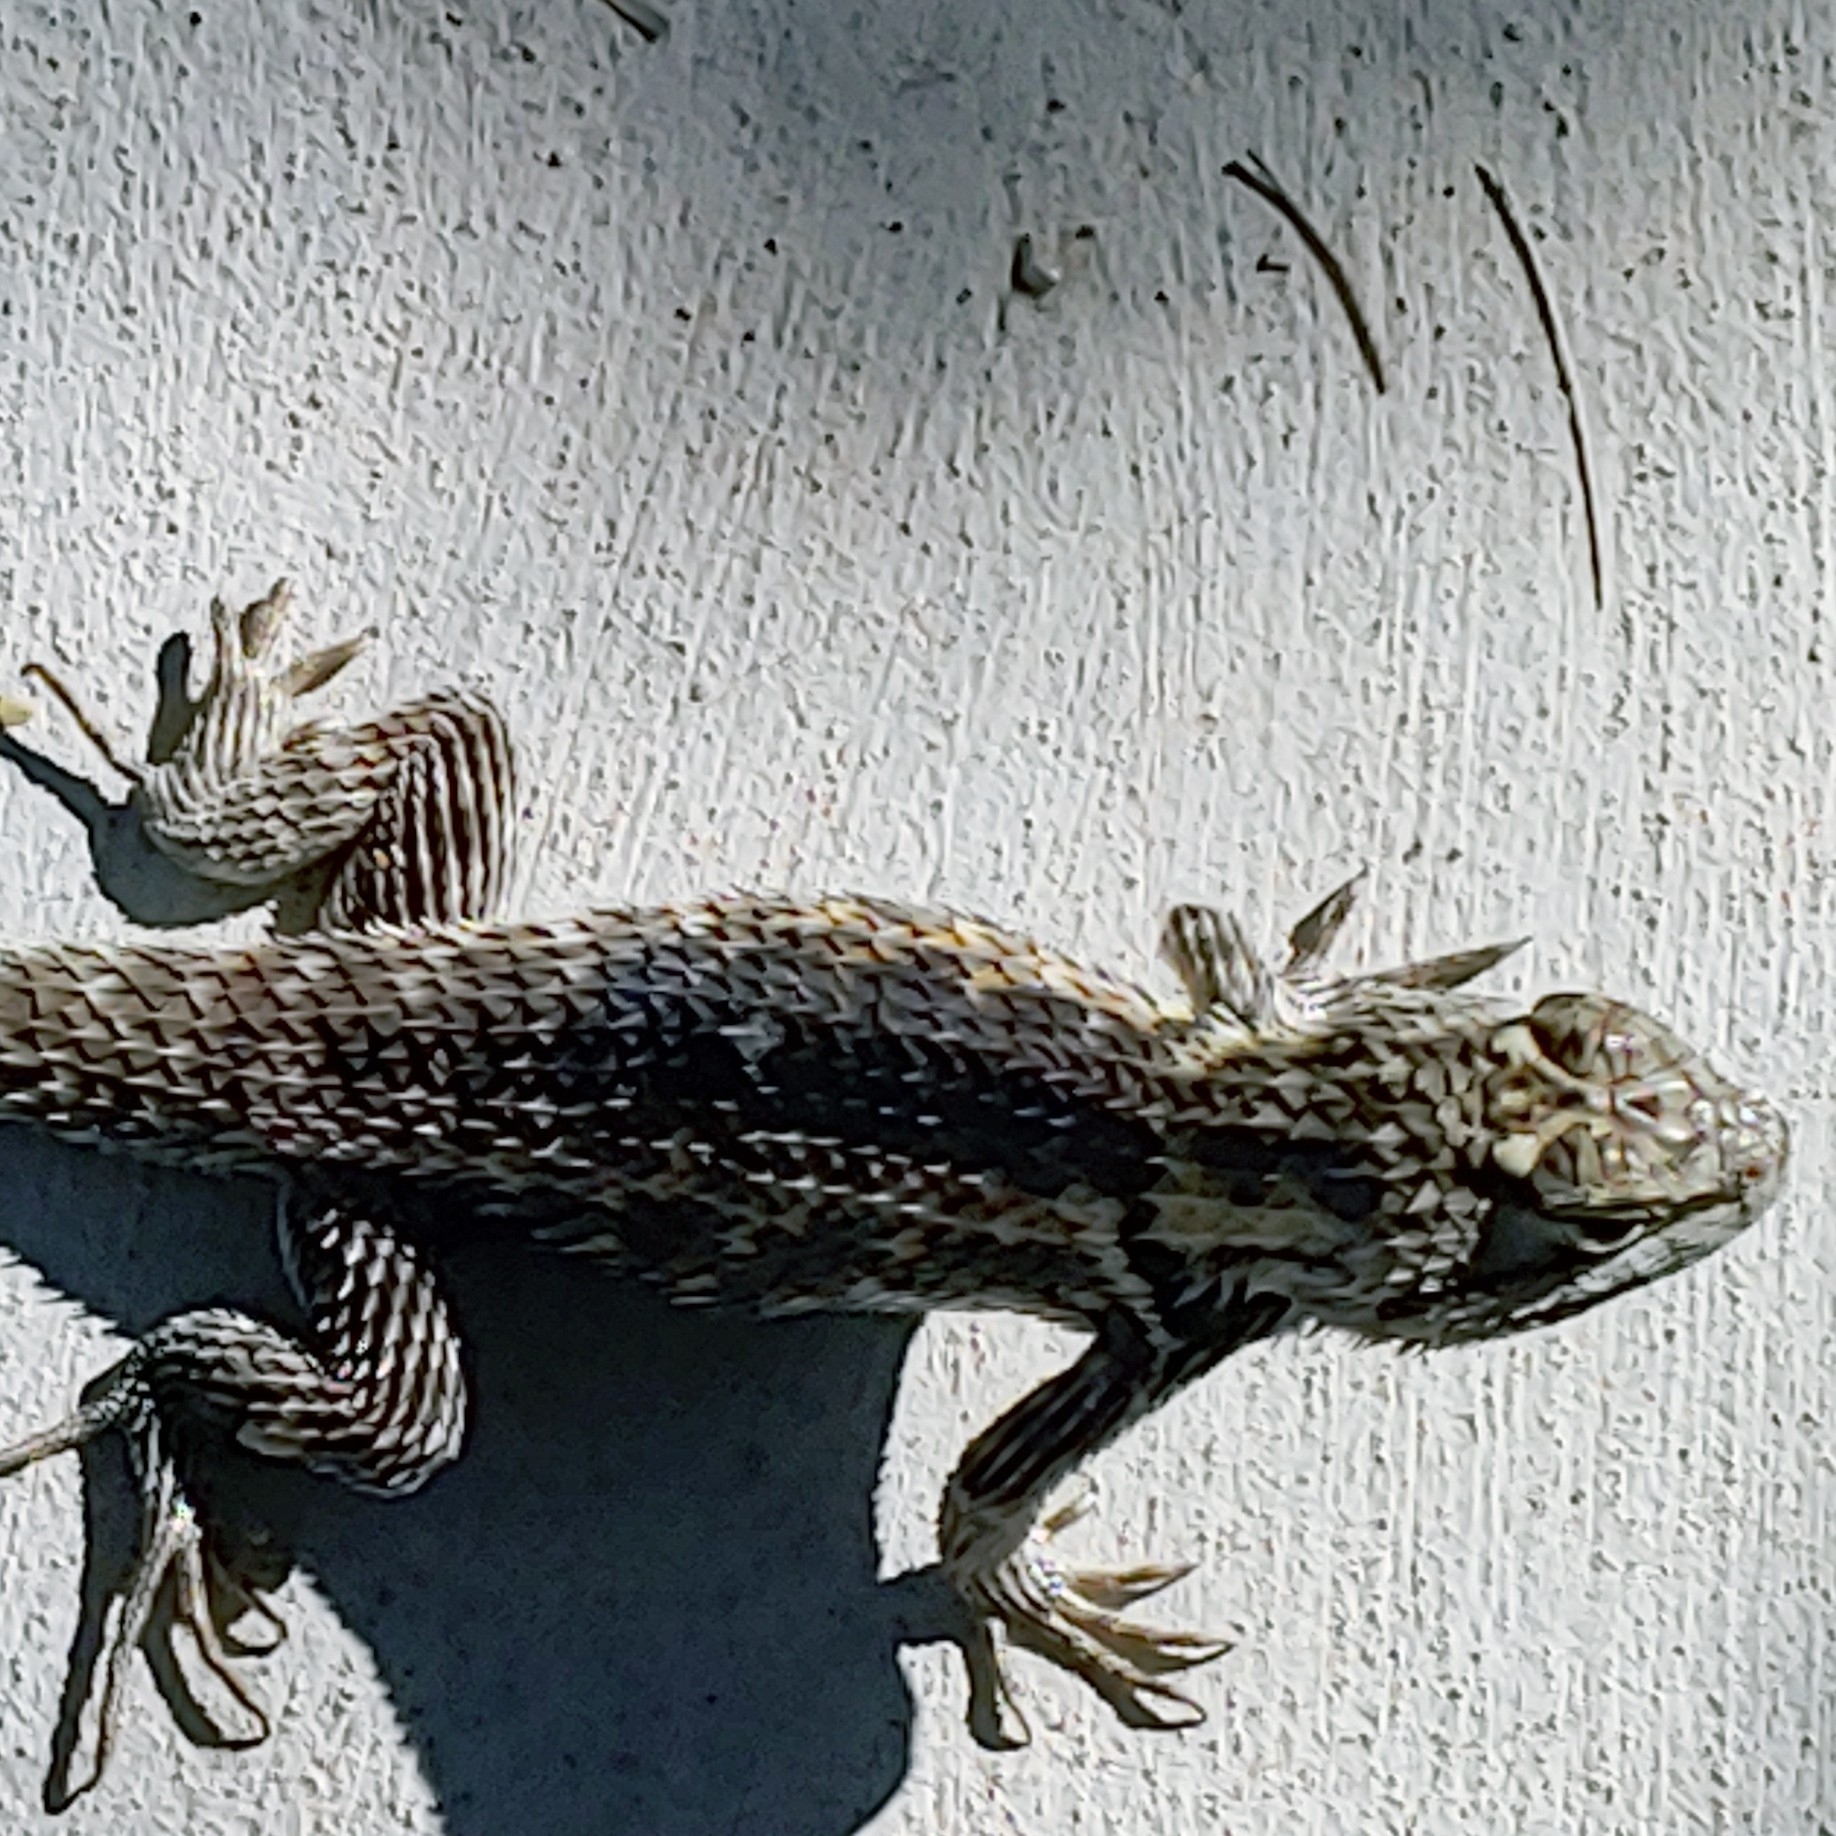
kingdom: Animalia
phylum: Chordata
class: Squamata
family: Phrynosomatidae
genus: Sceloporus
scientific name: Sceloporus magister
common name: Desert spiny lizard
